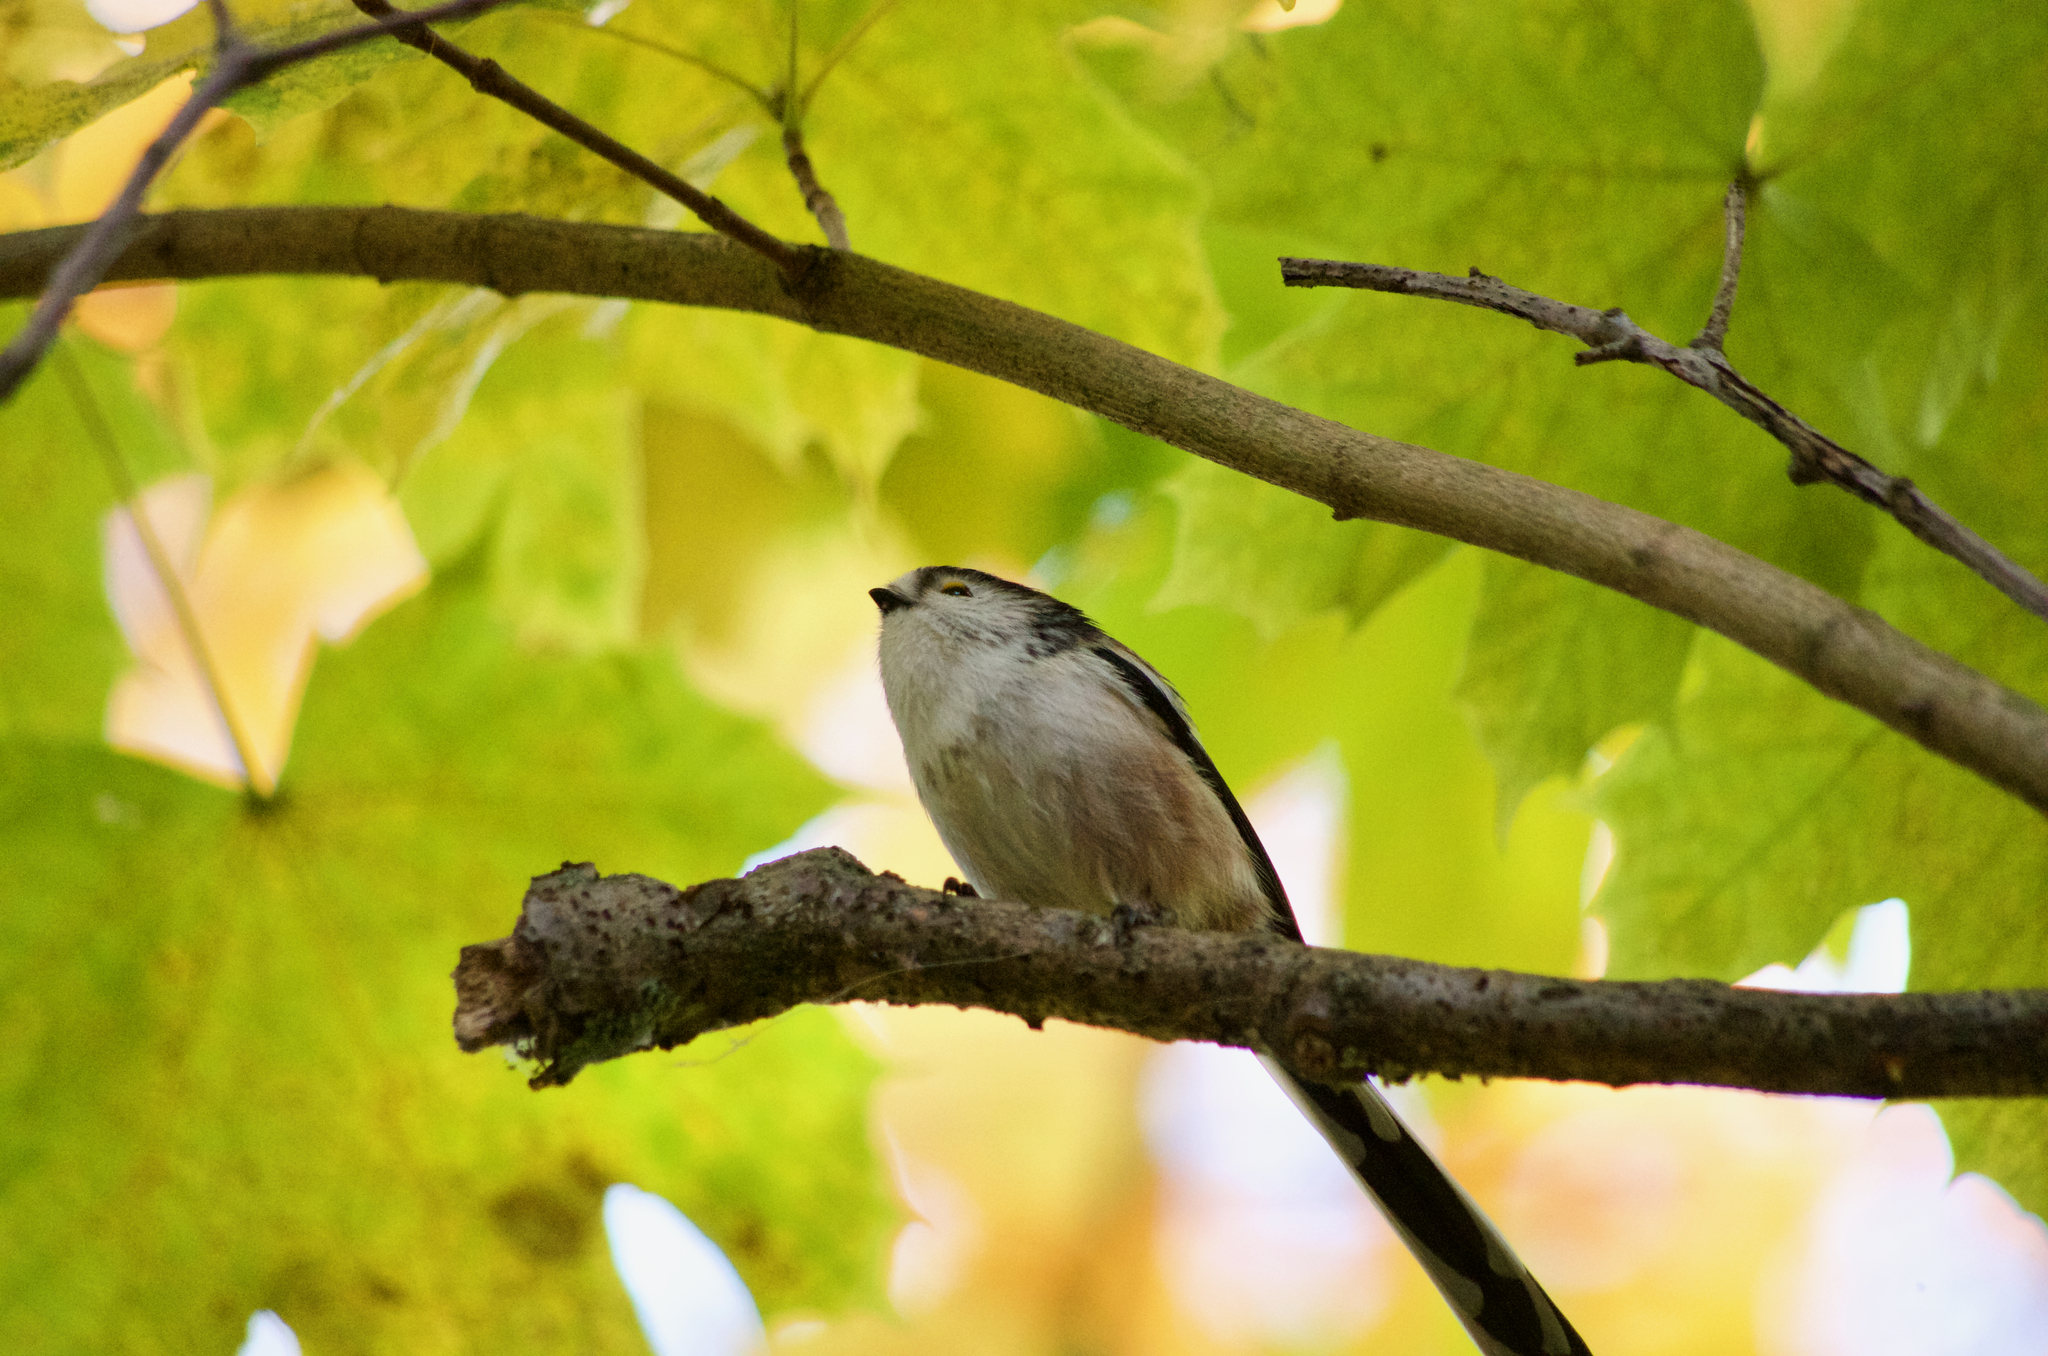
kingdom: Animalia
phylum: Chordata
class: Aves
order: Passeriformes
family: Aegithalidae
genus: Aegithalos
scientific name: Aegithalos caudatus
